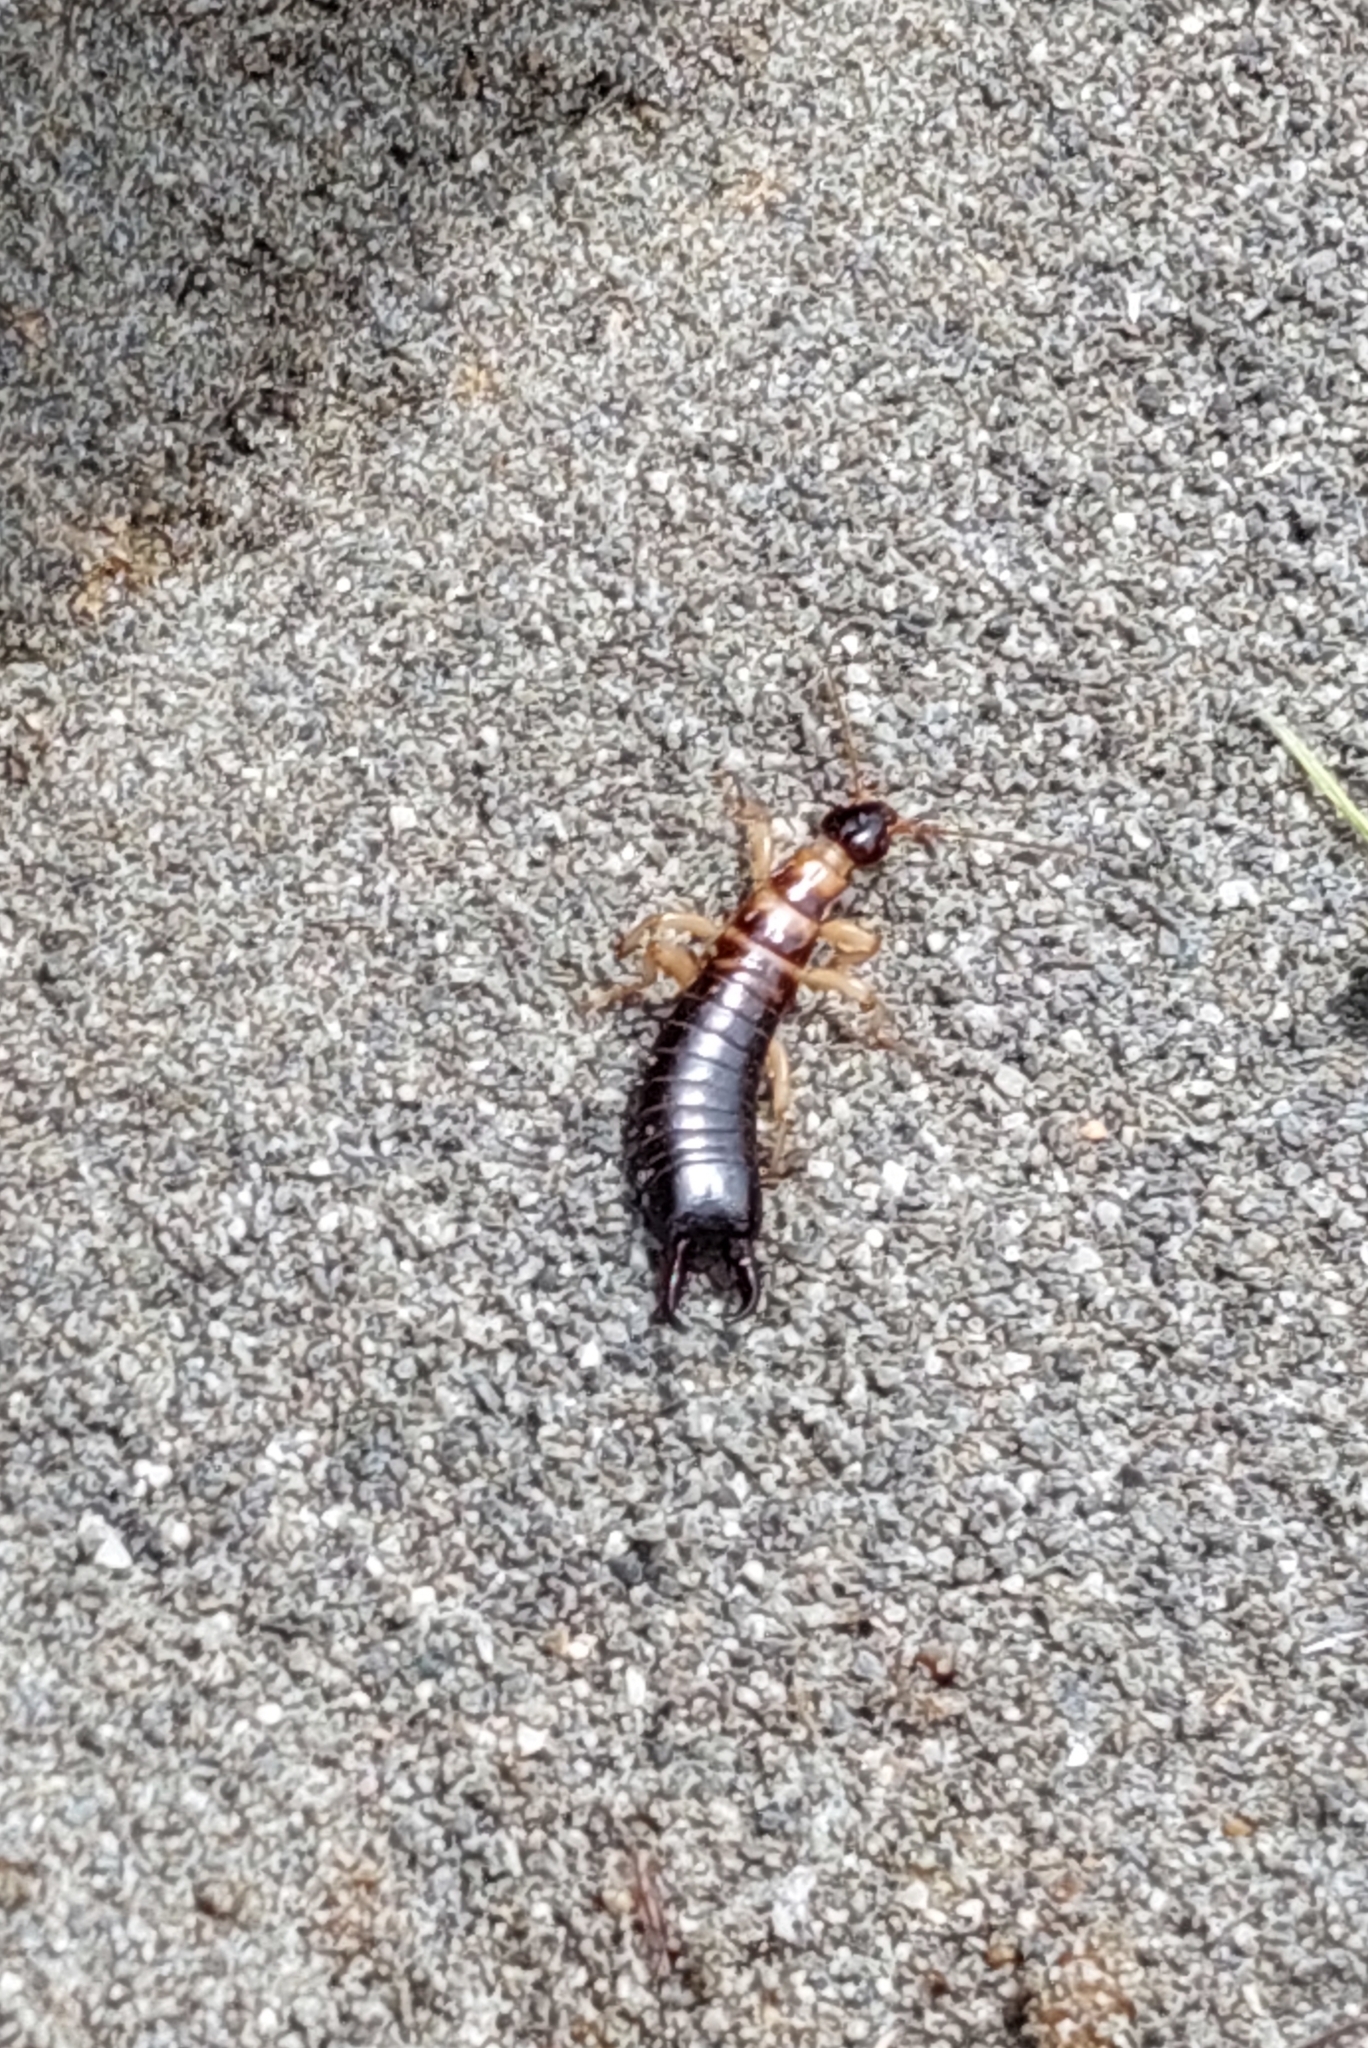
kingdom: Animalia
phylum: Arthropoda
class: Insecta
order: Dermaptera
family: Anisolabididae
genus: Anisolabis
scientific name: Anisolabis littorea
